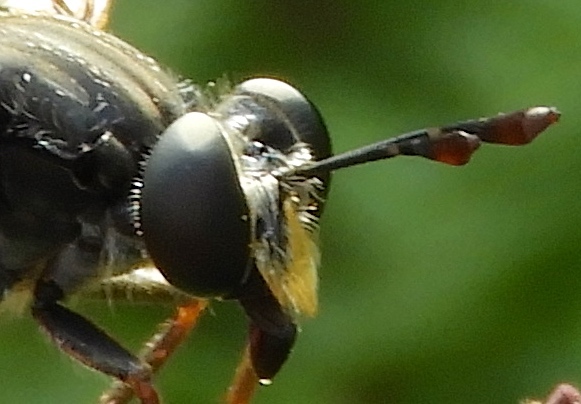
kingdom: Animalia
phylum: Arthropoda
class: Insecta
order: Diptera
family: Mydidae
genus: Mydas
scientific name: Mydas
